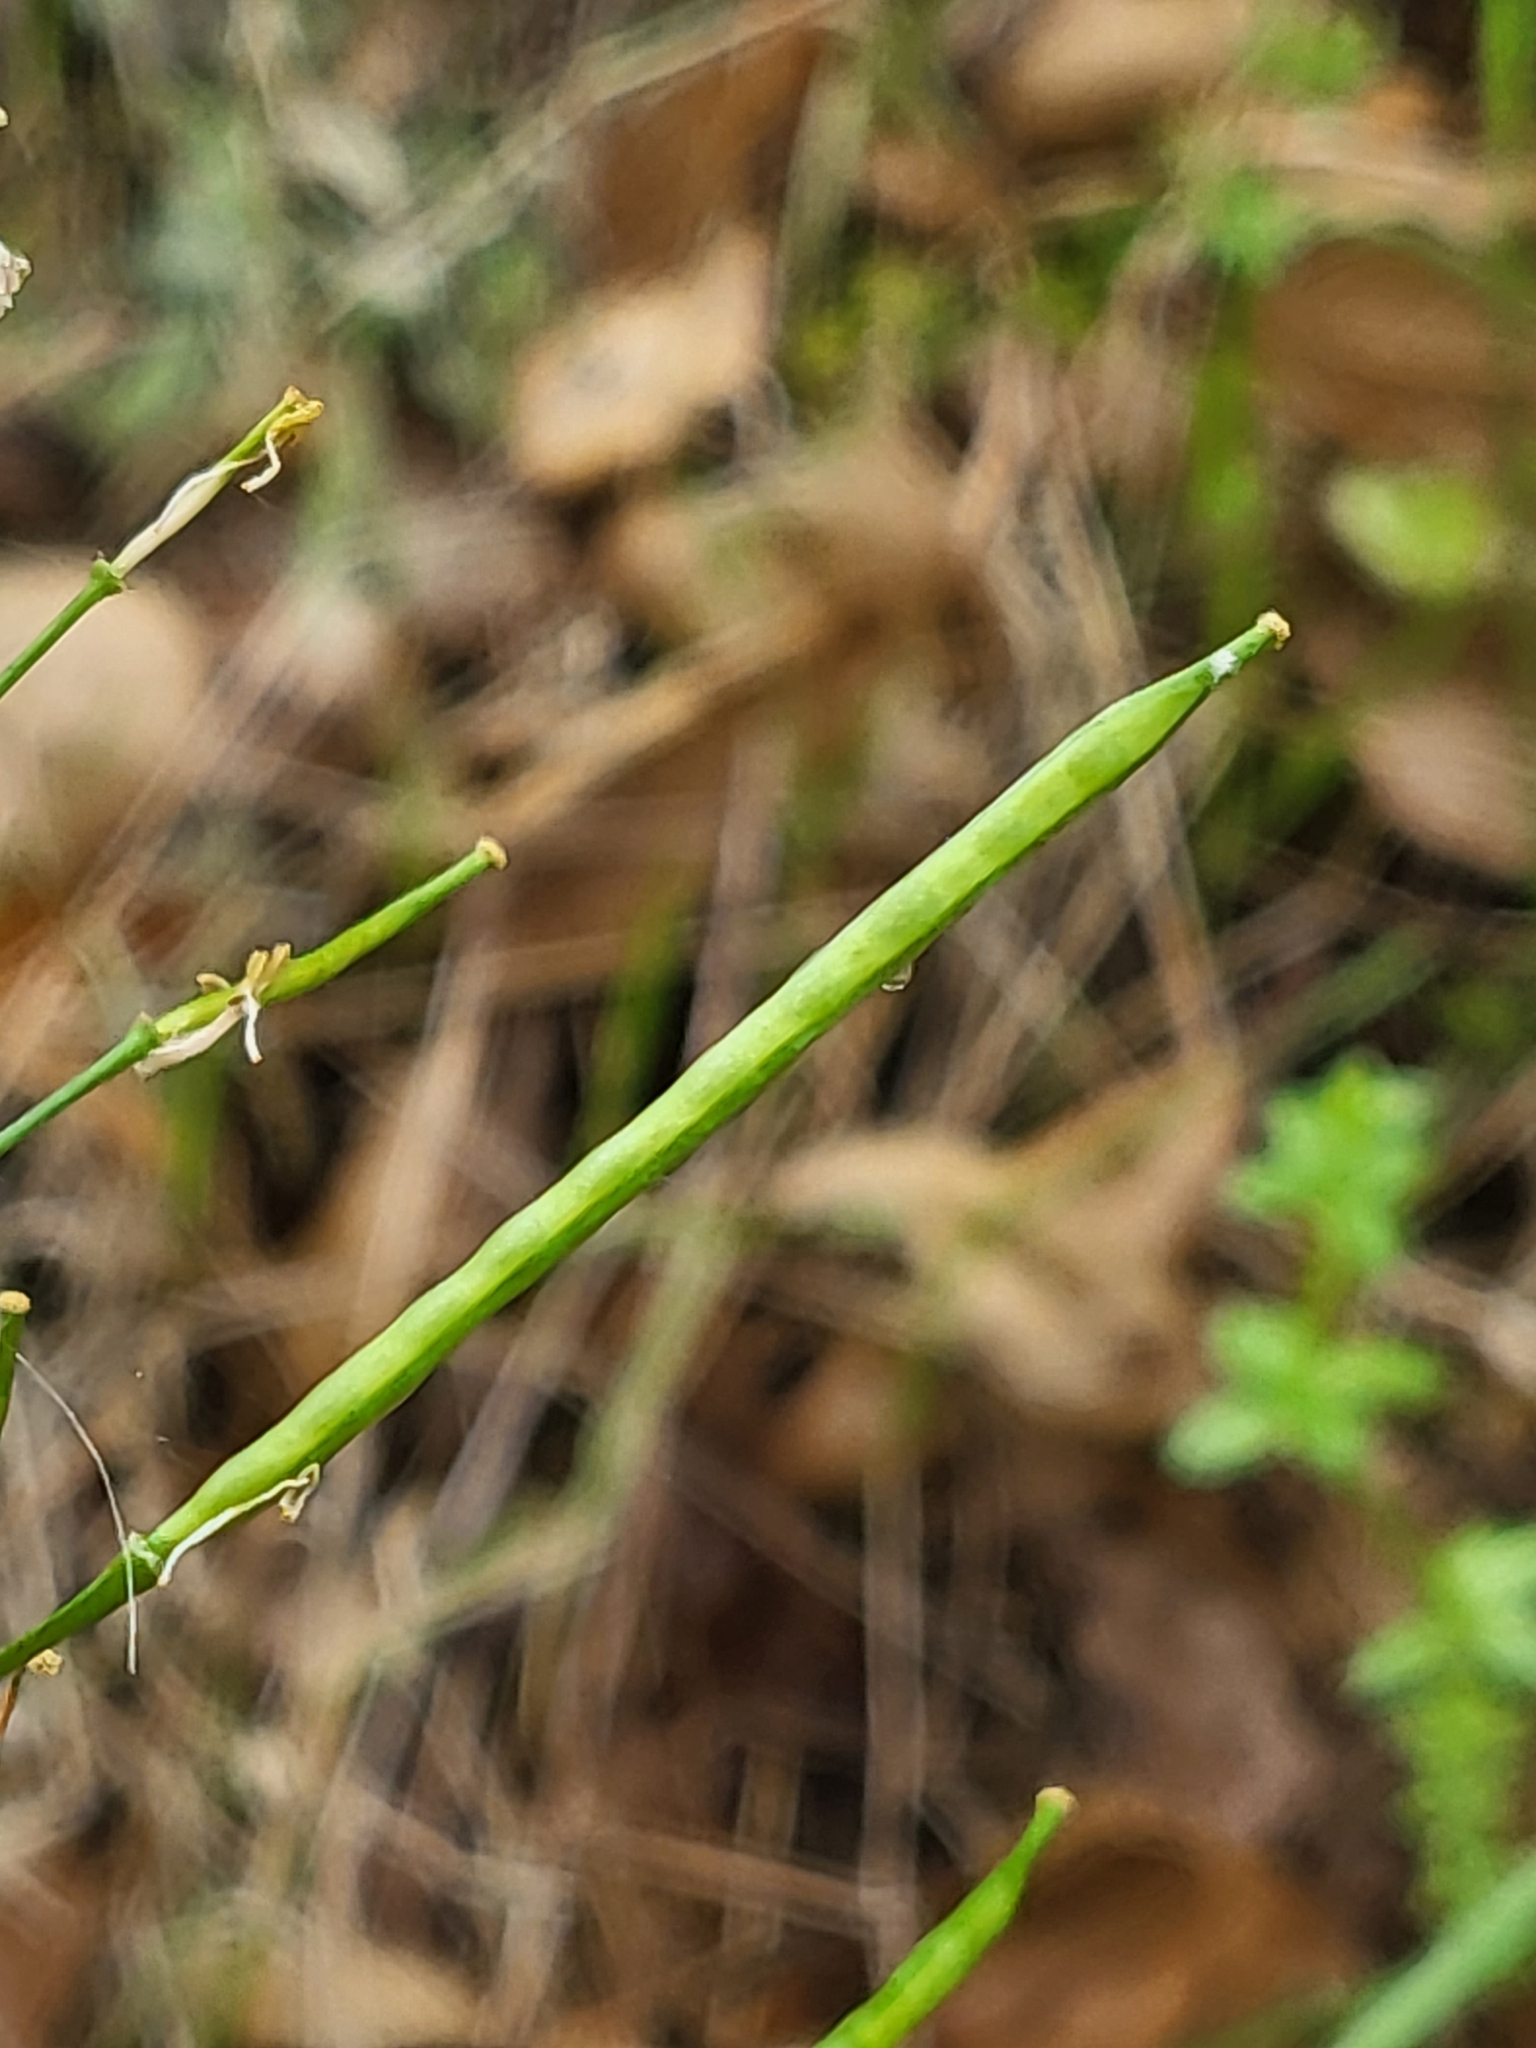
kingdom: Plantae
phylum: Tracheophyta
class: Magnoliopsida
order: Brassicales
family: Brassicaceae
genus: Cardamine
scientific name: Cardamine californica
